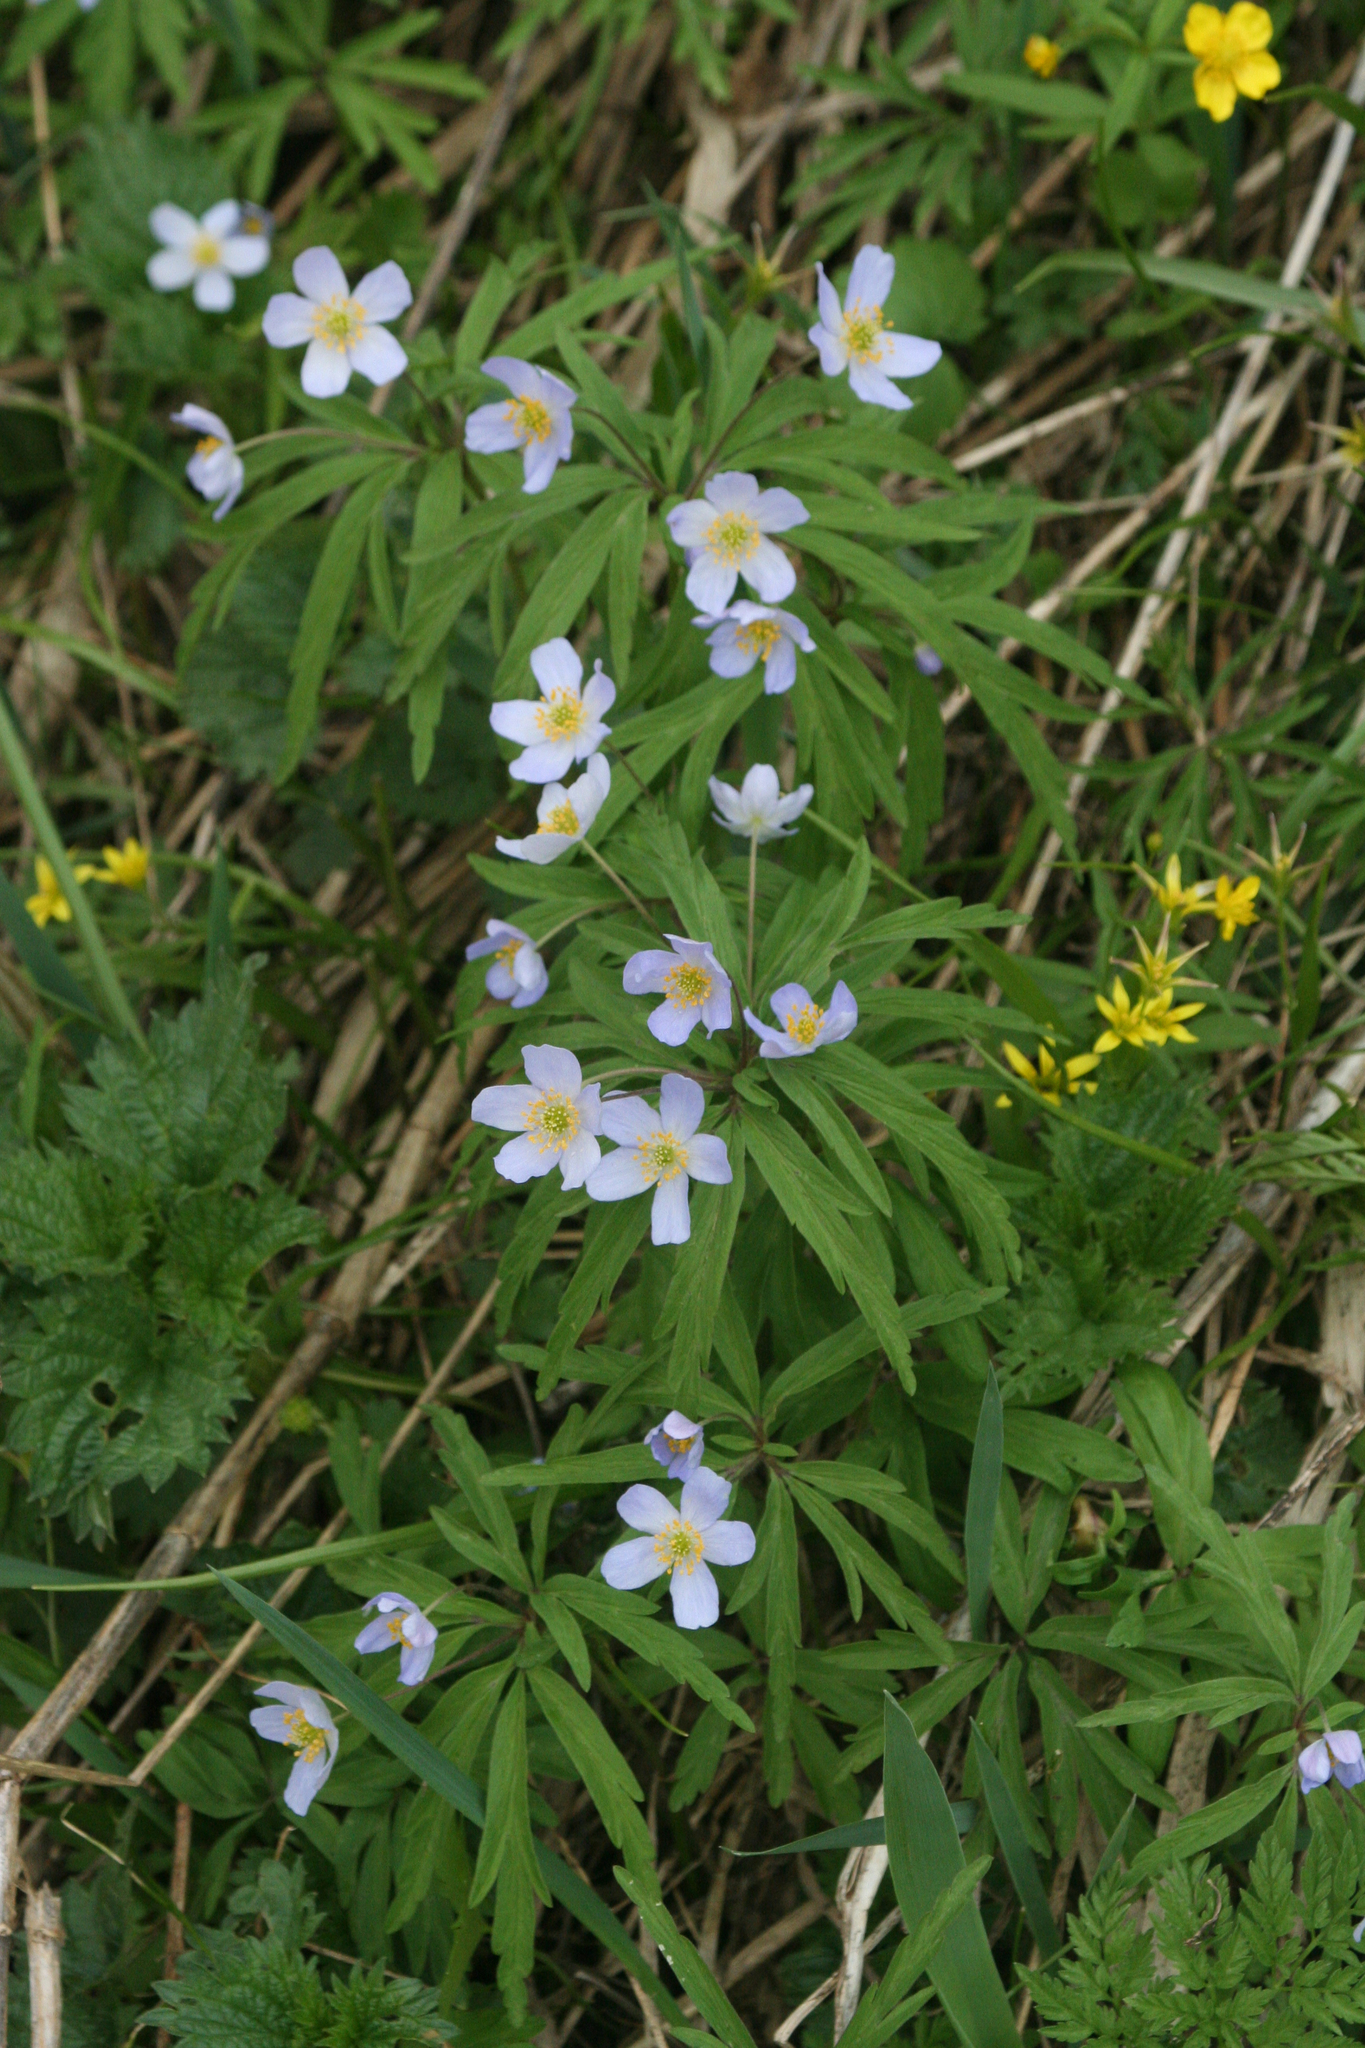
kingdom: Plantae
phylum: Tracheophyta
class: Magnoliopsida
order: Ranunculales
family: Ranunculaceae
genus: Anemone
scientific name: Anemone caerulea
